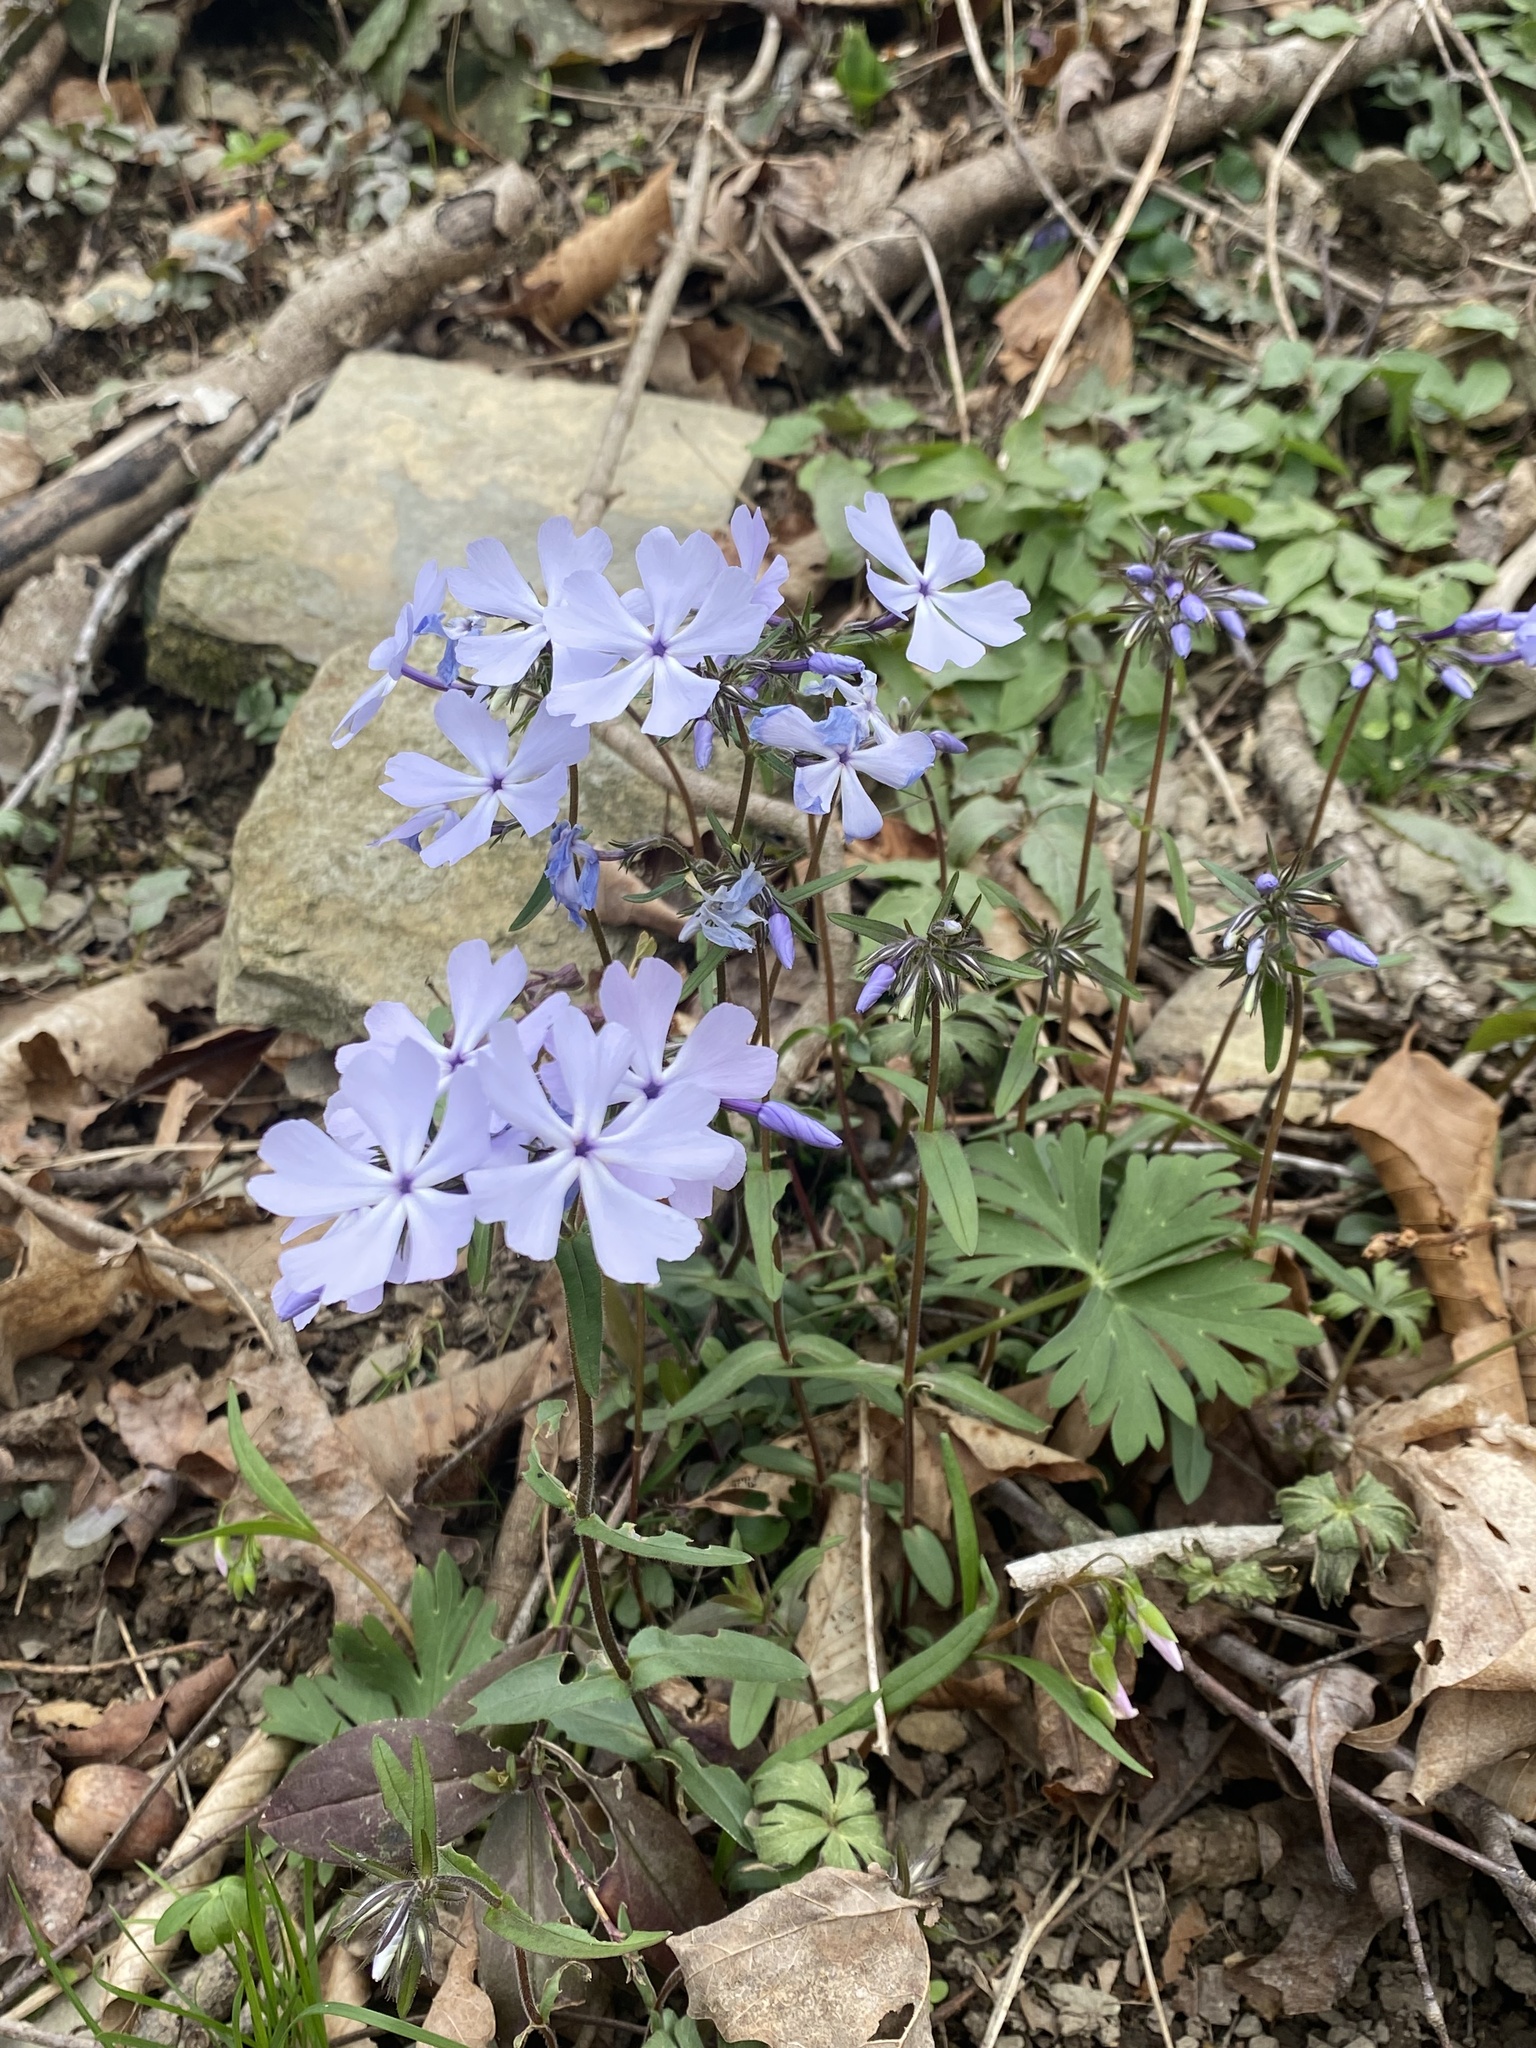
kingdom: Plantae
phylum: Tracheophyta
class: Magnoliopsida
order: Ericales
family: Polemoniaceae
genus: Phlox
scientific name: Phlox divaricata
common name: Blue phlox
